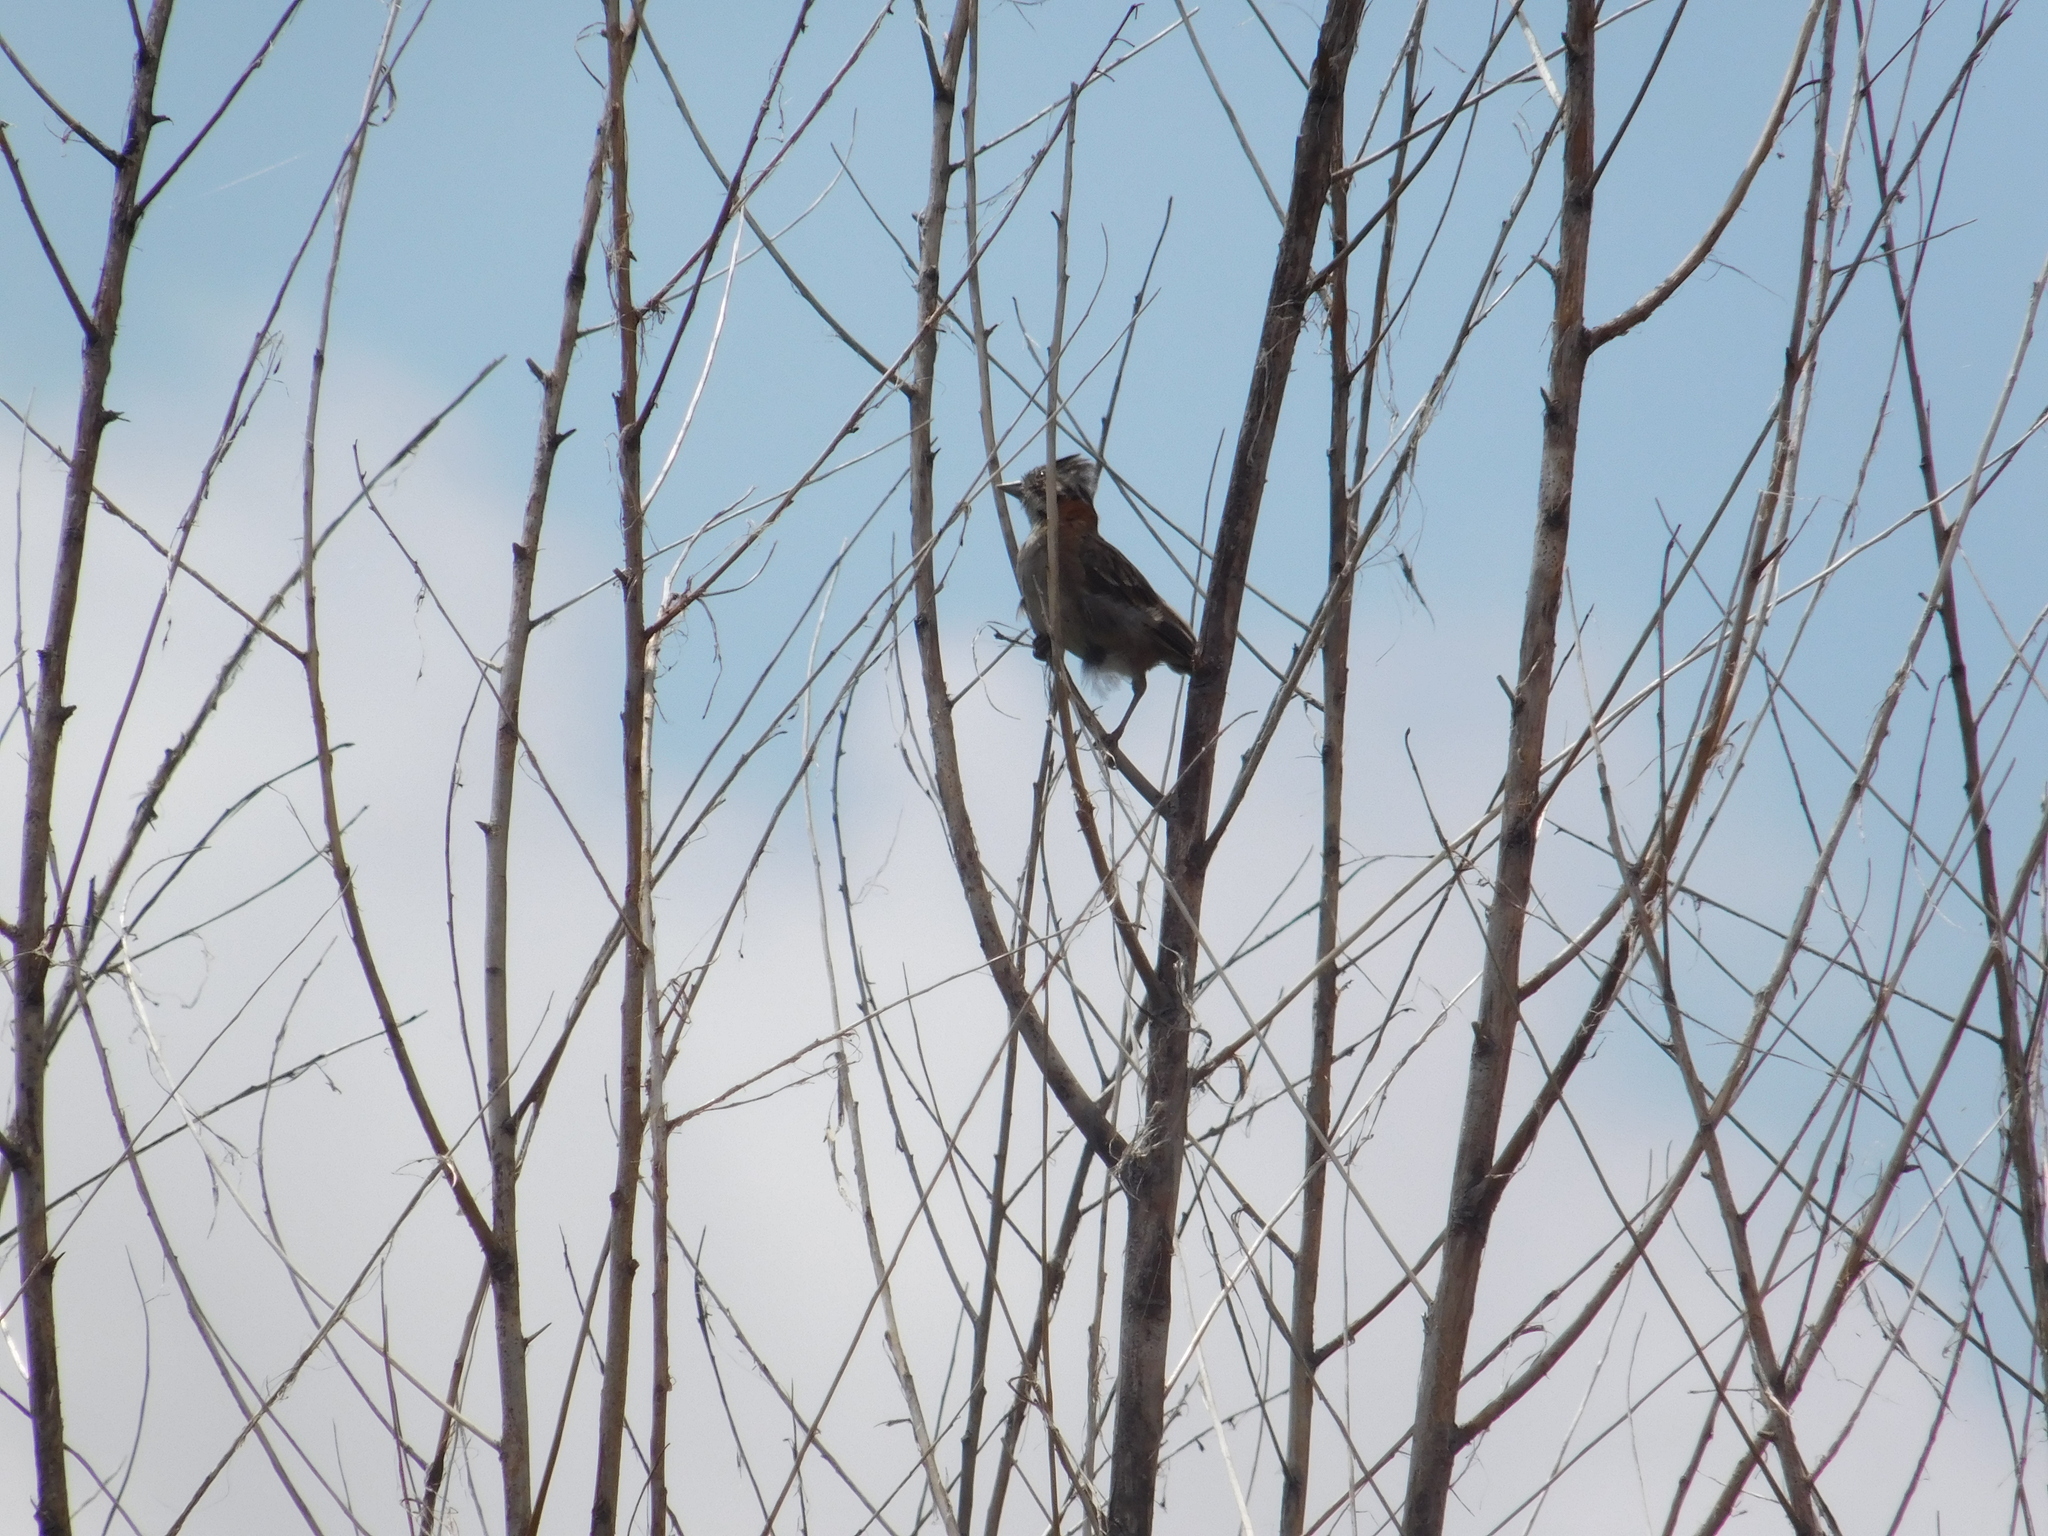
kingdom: Animalia
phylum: Chordata
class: Aves
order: Passeriformes
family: Passerellidae
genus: Zonotrichia
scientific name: Zonotrichia capensis
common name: Rufous-collared sparrow
